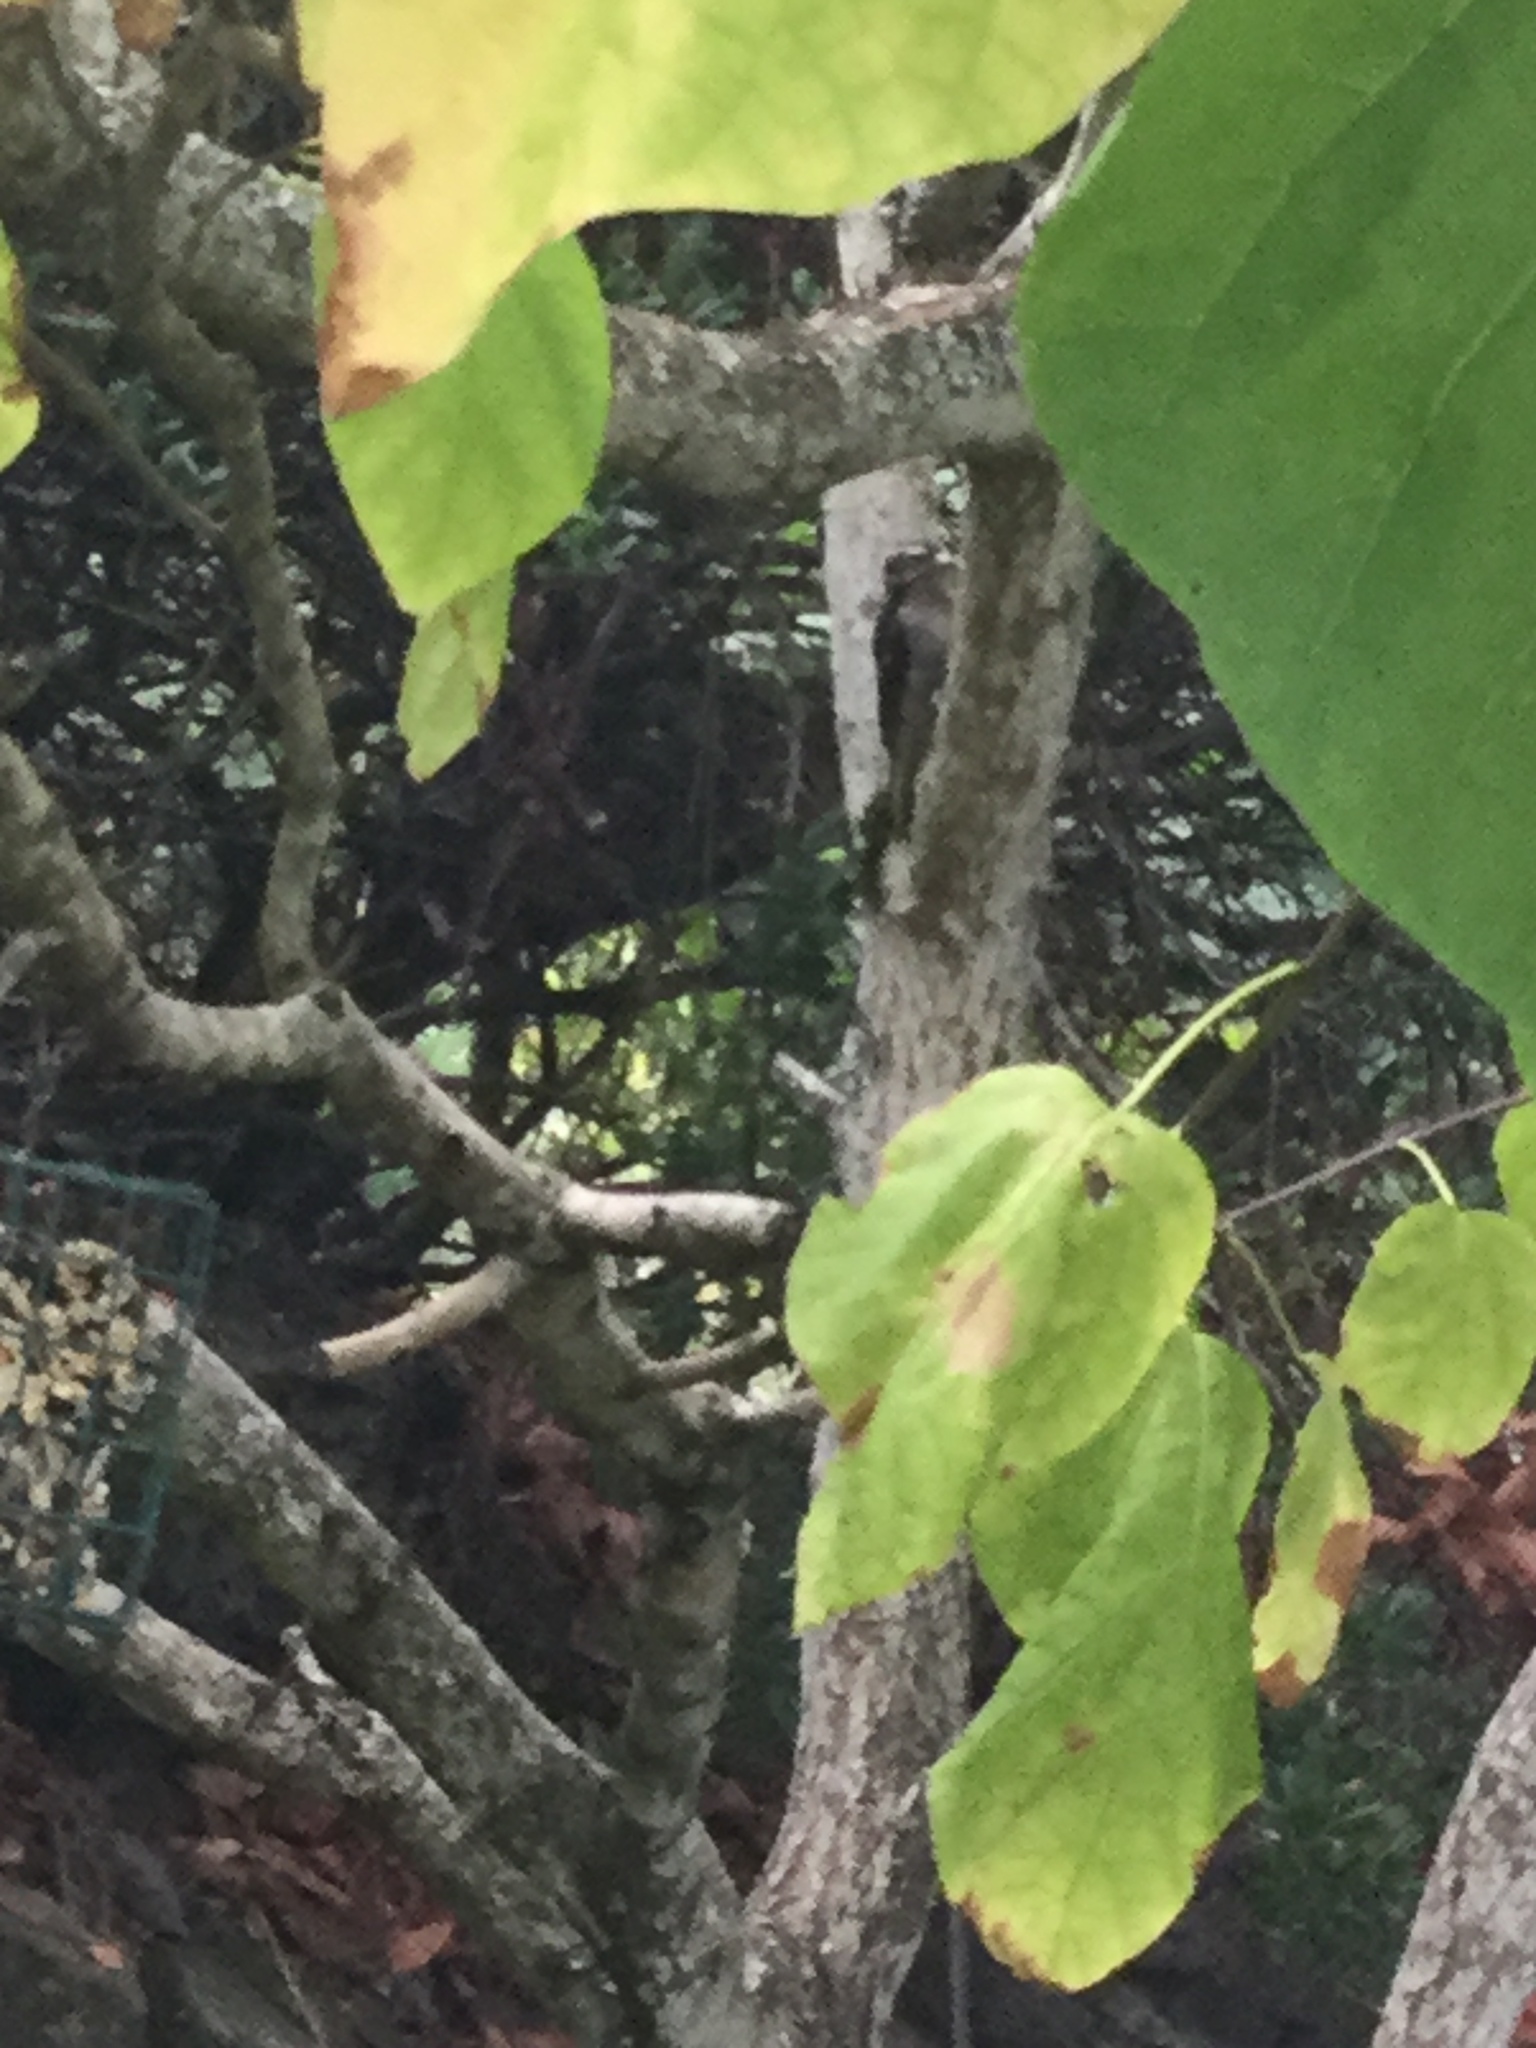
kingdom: Animalia
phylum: Chordata
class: Aves
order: Piciformes
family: Picidae
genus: Dryobates
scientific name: Dryobates pubescens
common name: Downy woodpecker
